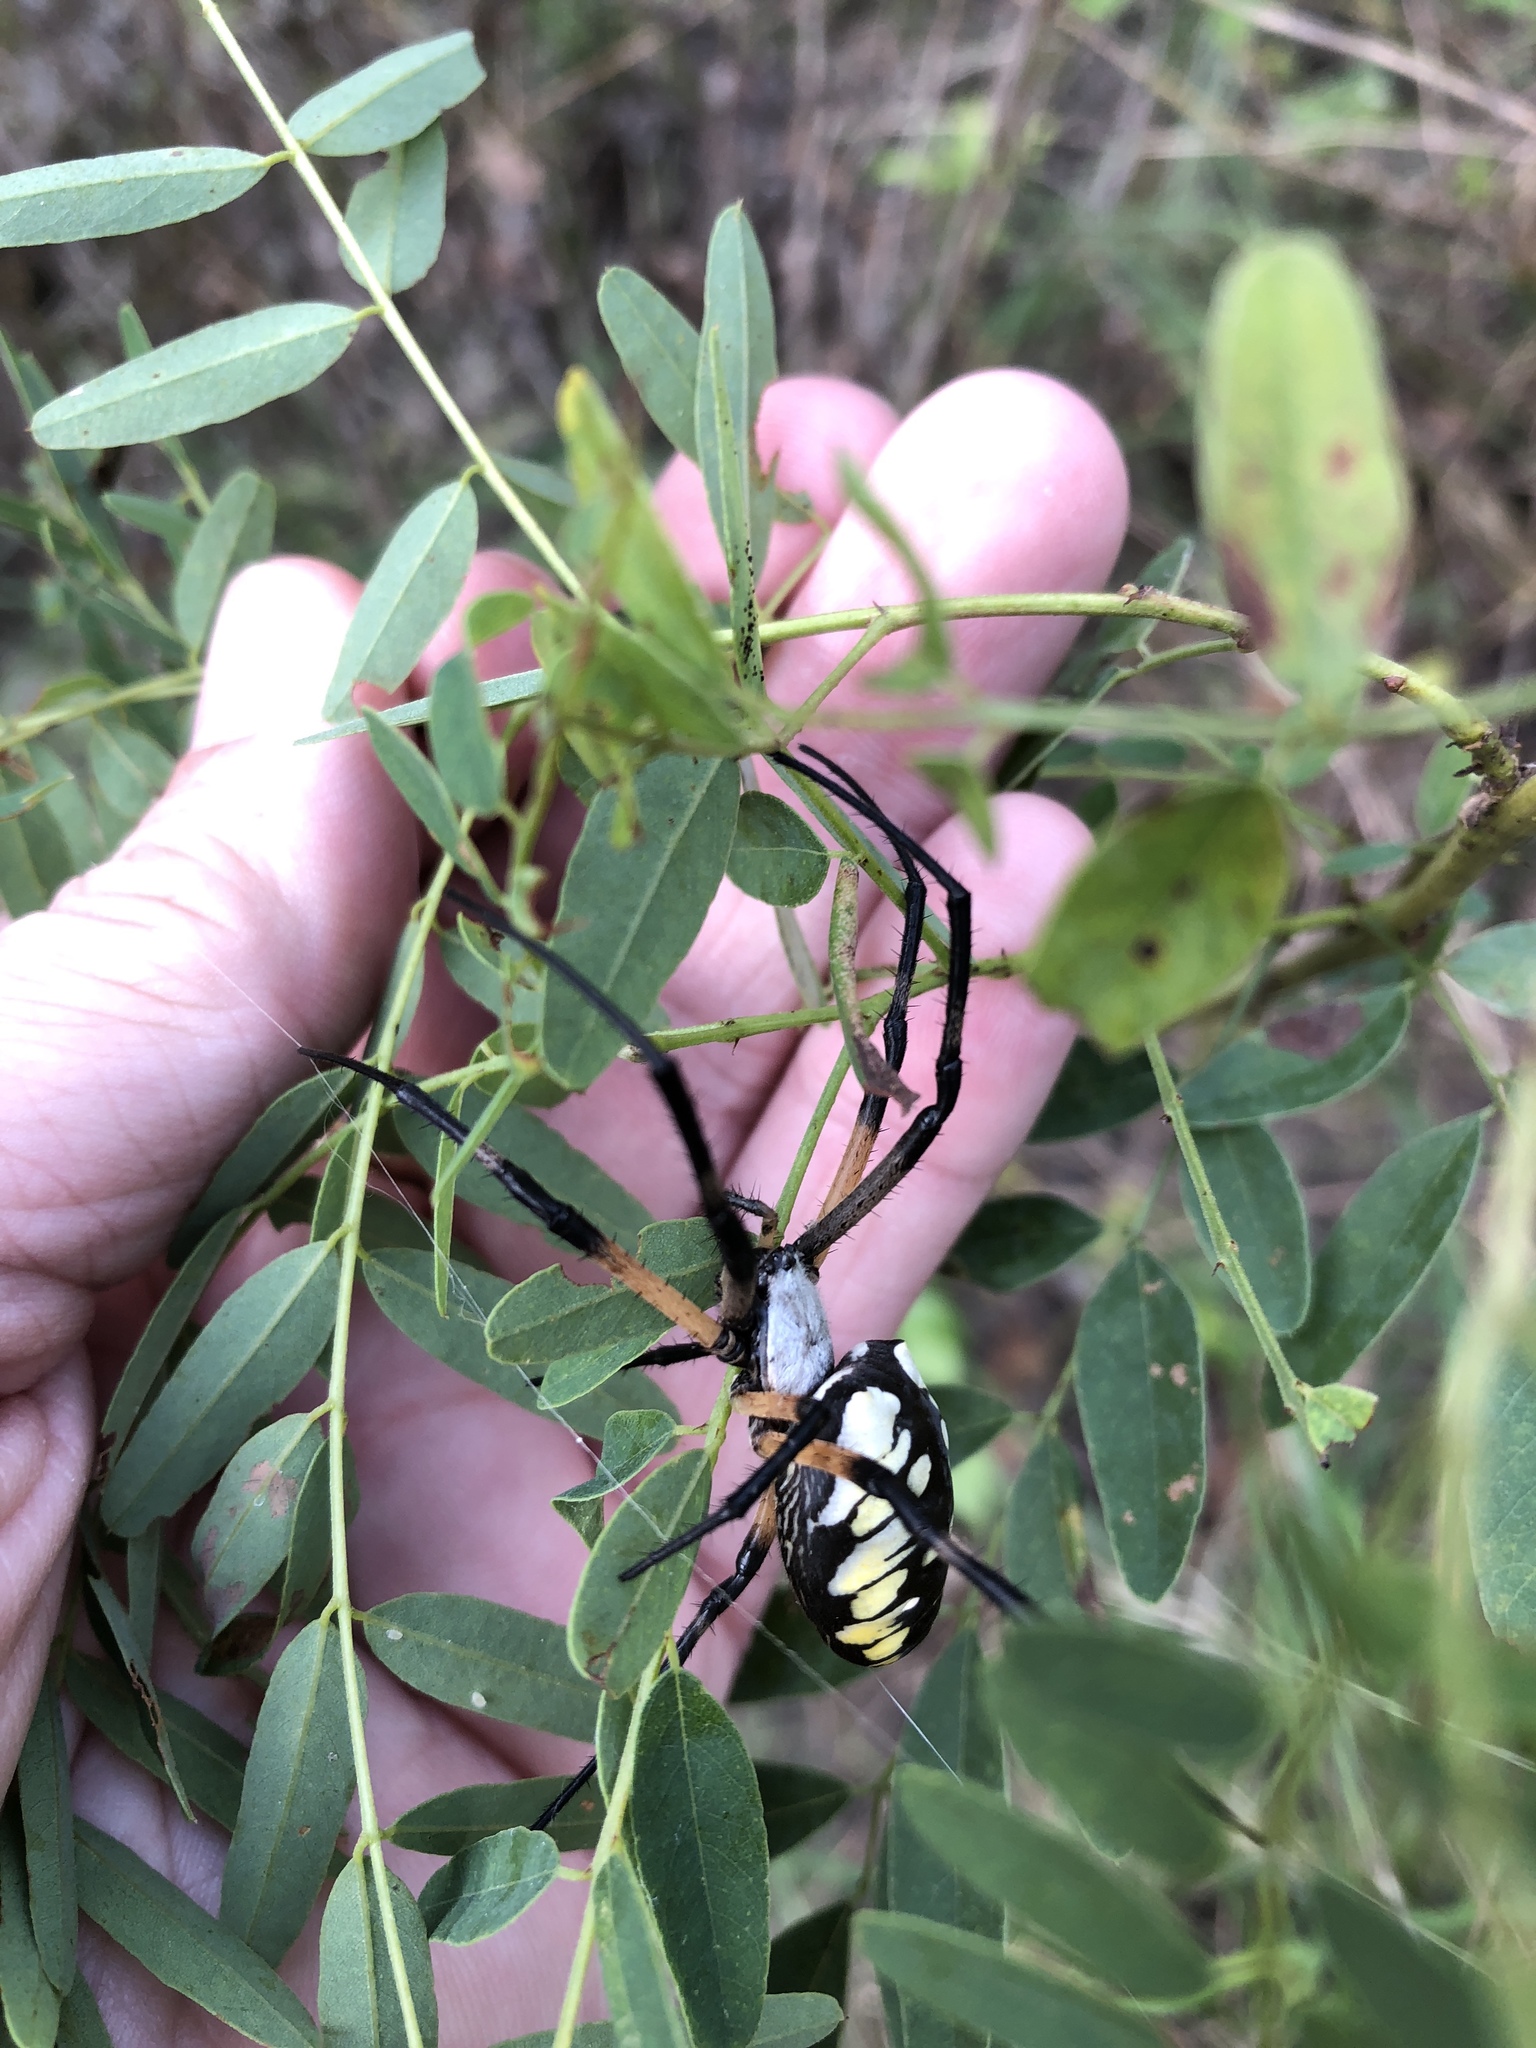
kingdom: Animalia
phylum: Arthropoda
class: Arachnida
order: Araneae
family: Araneidae
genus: Argiope
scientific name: Argiope aurantia
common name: Orb weavers
